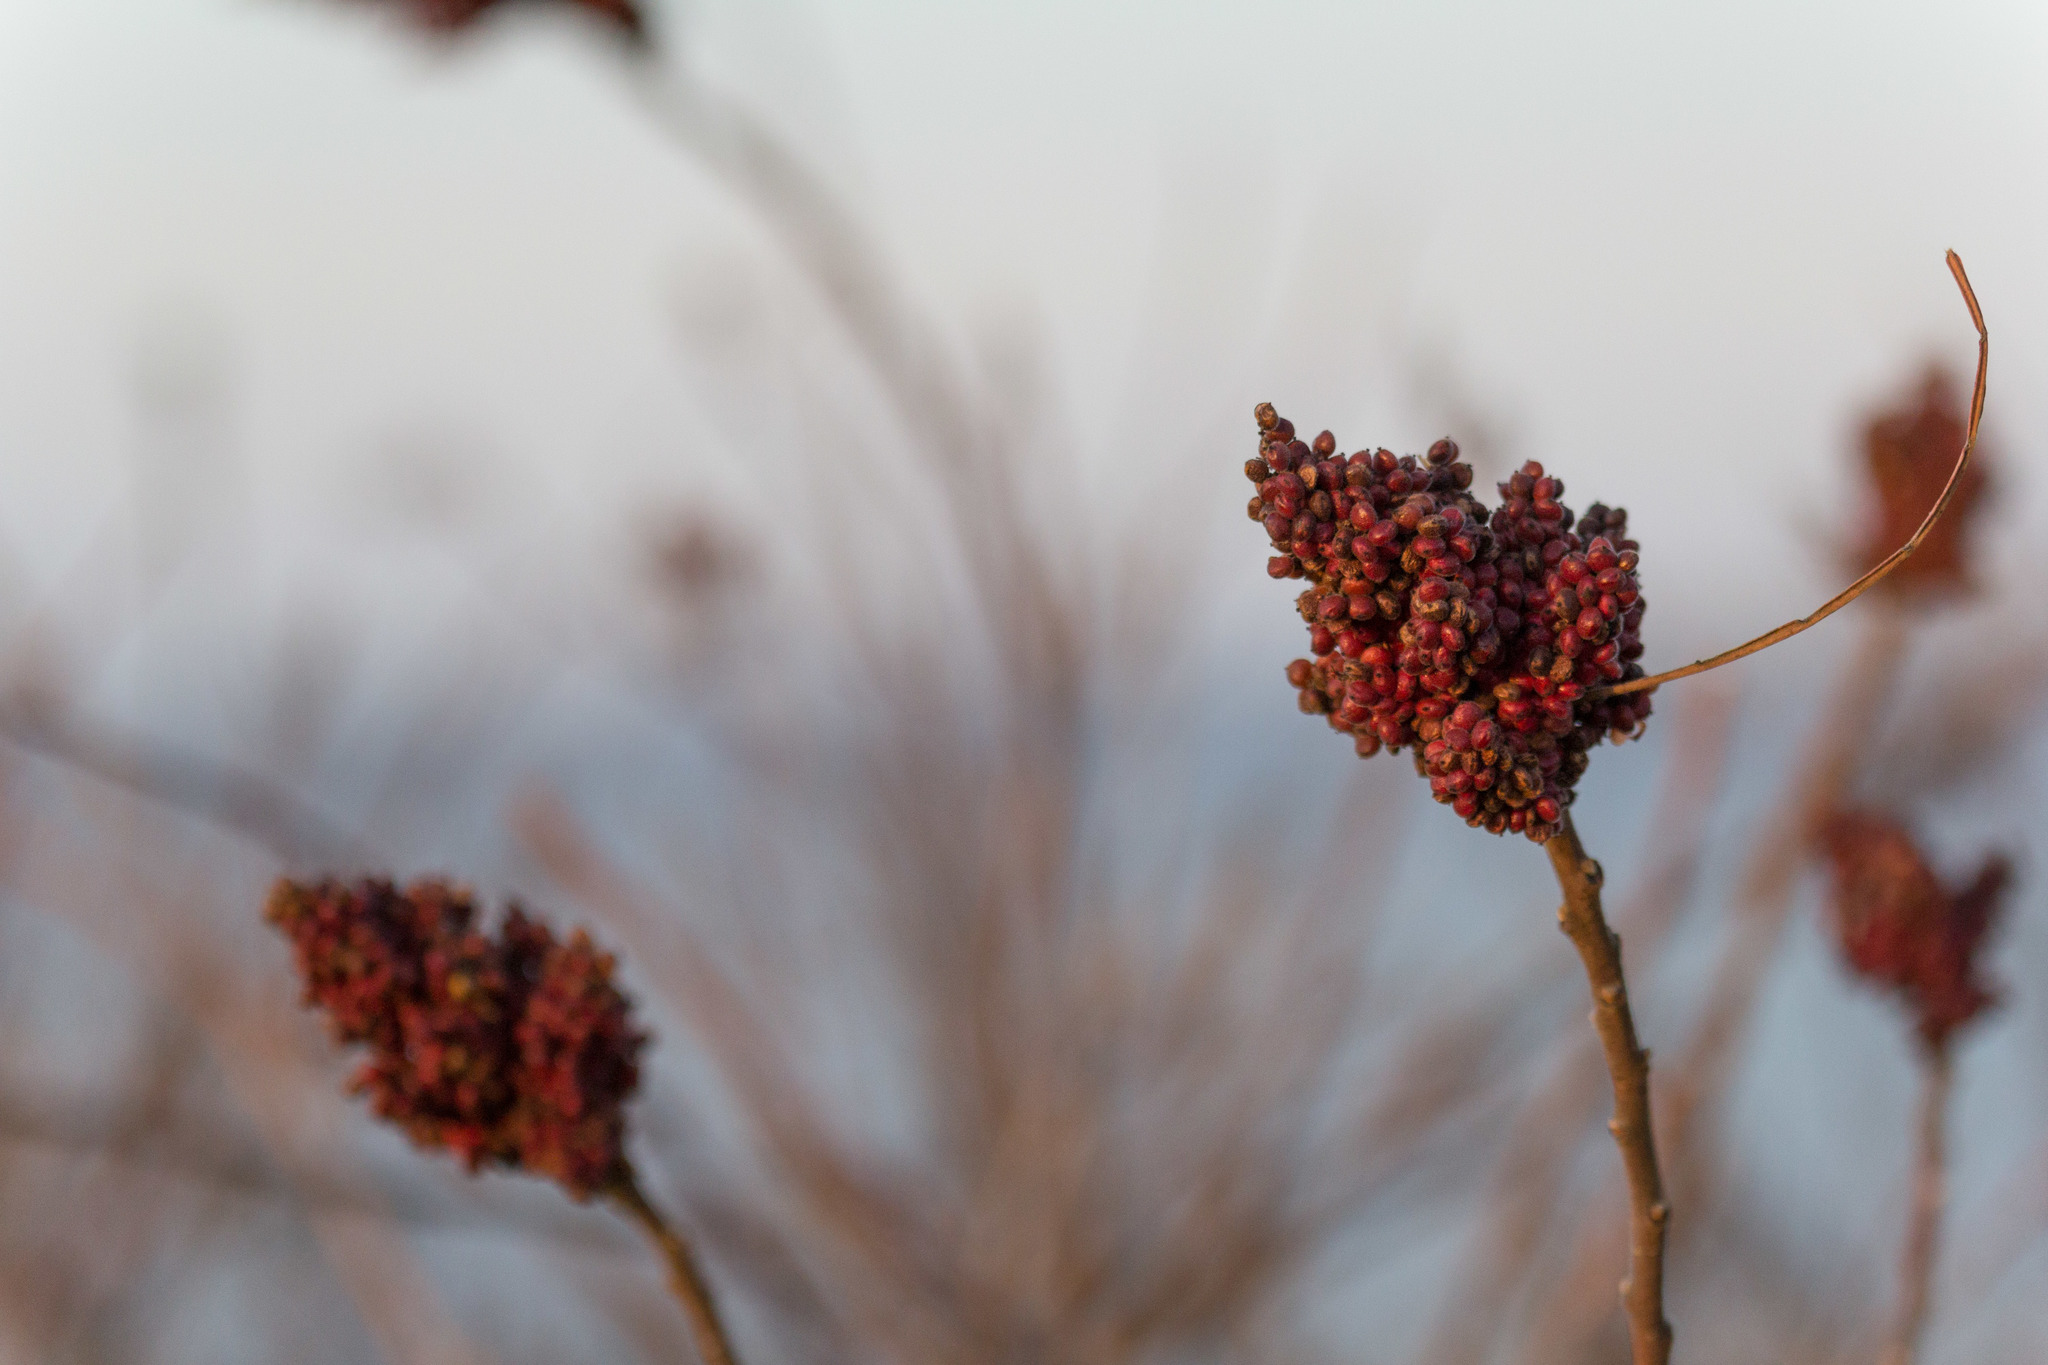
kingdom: Plantae
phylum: Tracheophyta
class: Magnoliopsida
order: Sapindales
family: Anacardiaceae
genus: Rhus
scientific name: Rhus copallina
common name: Shining sumac
